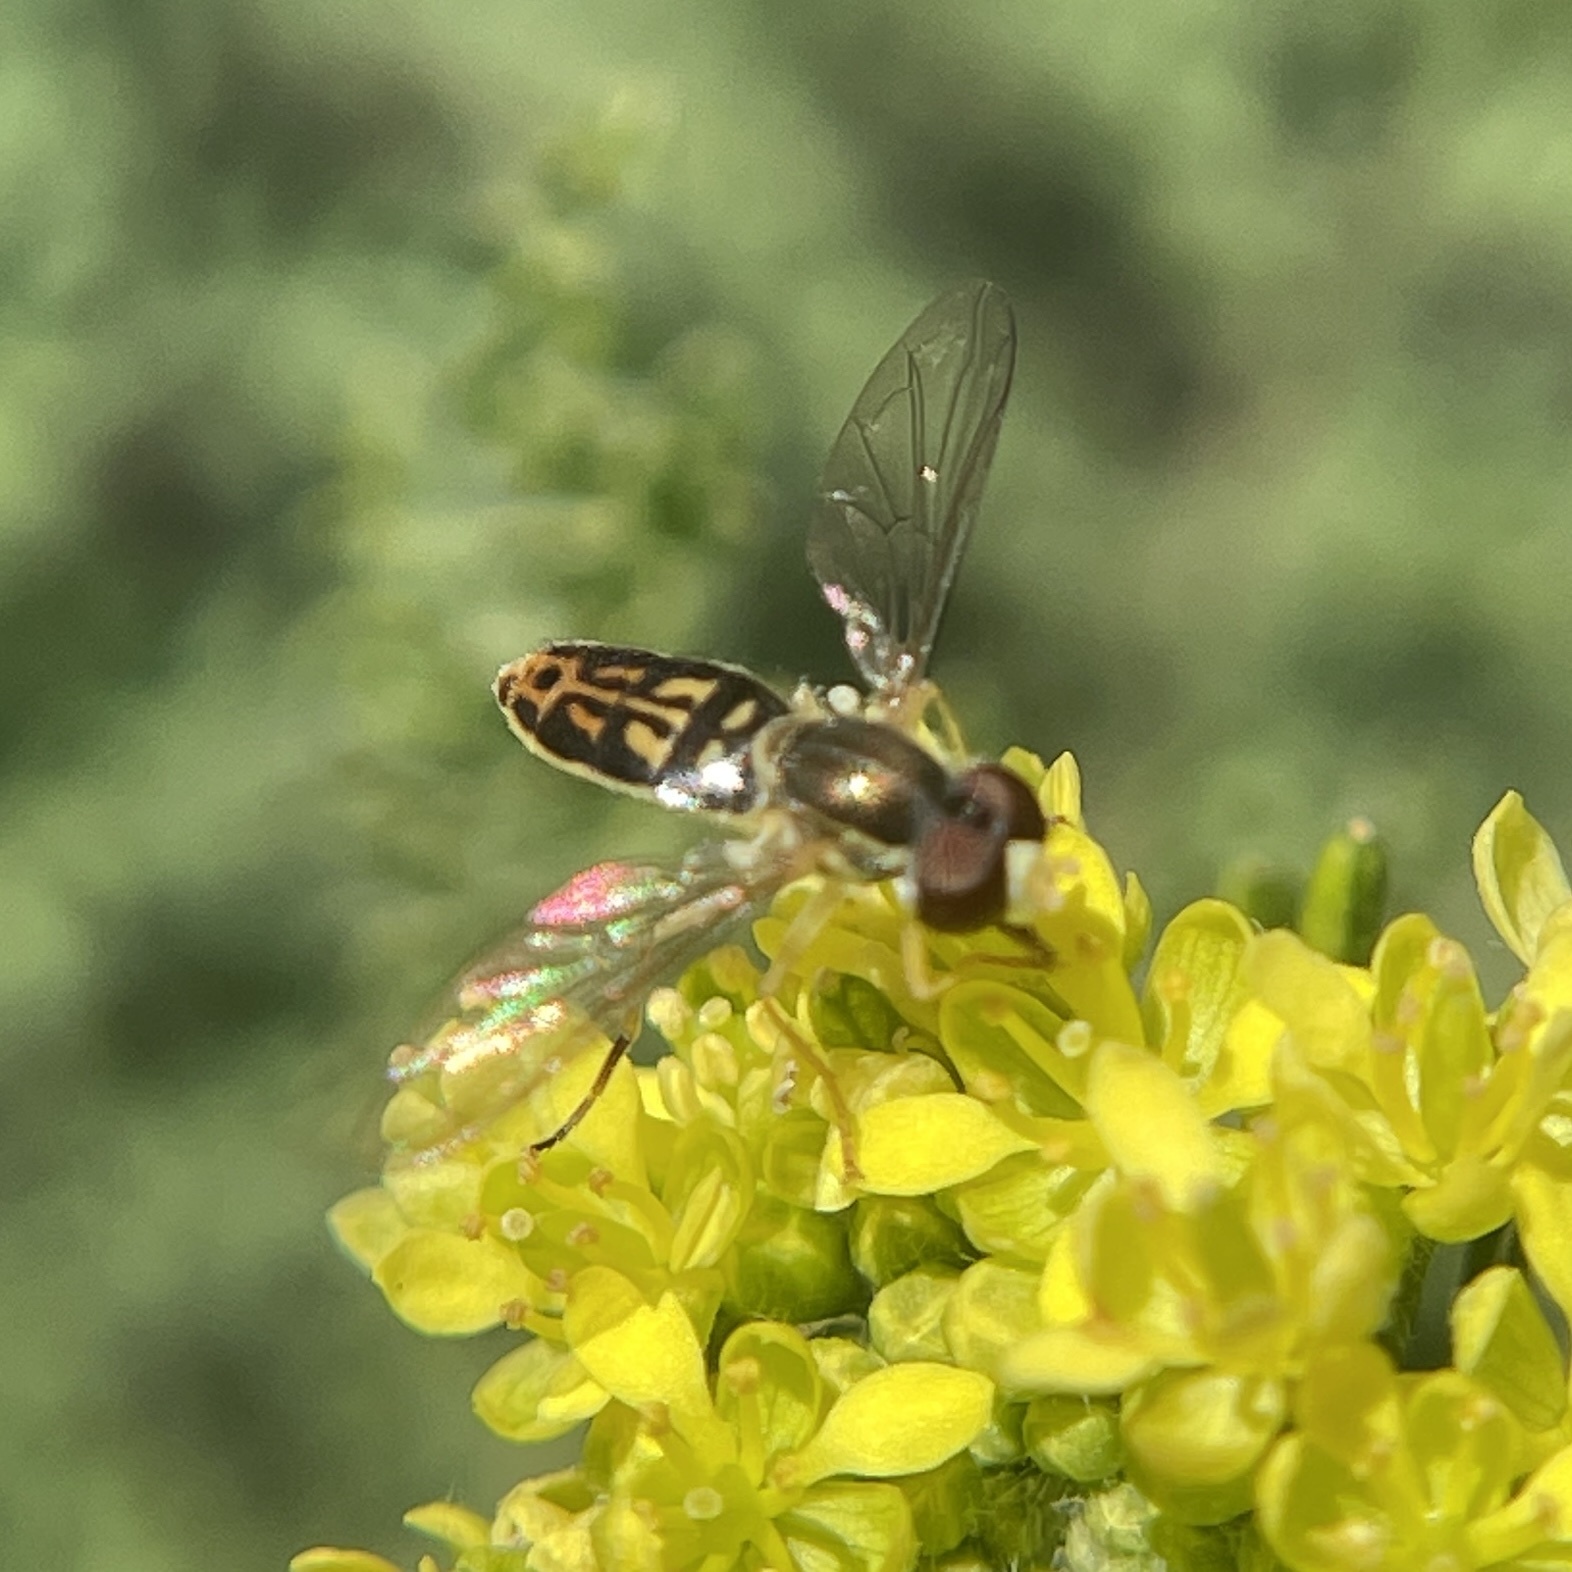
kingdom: Animalia
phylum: Arthropoda
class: Insecta
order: Diptera
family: Syrphidae
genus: Toxomerus
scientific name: Toxomerus marginatus
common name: Syrphid fly
